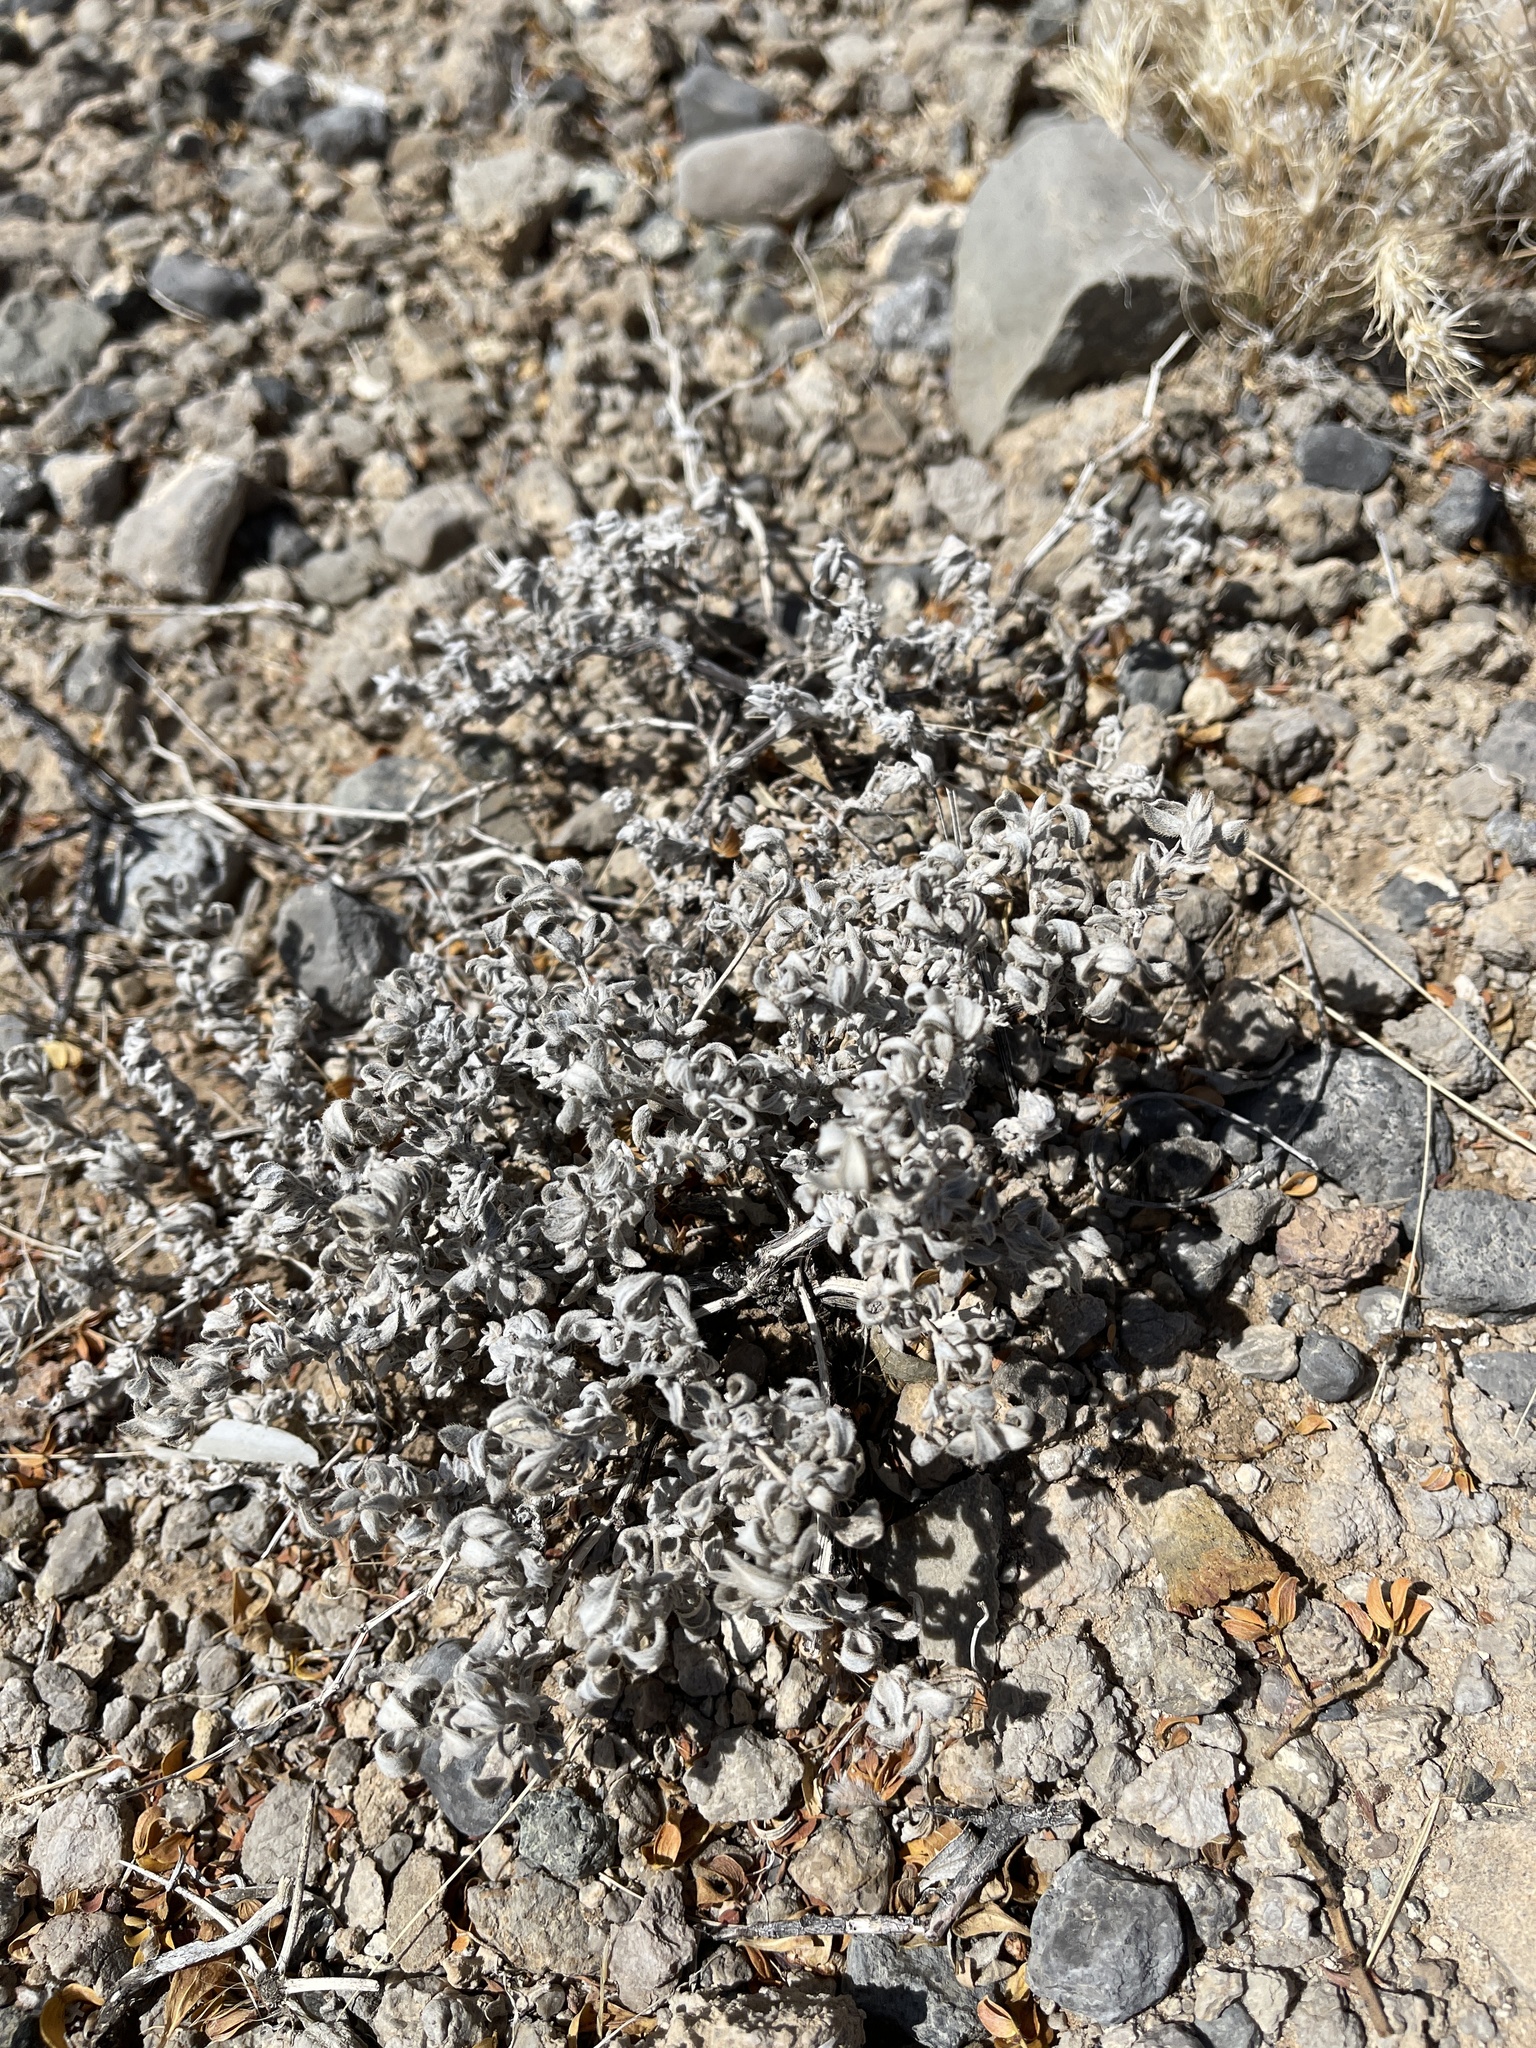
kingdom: Plantae
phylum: Tracheophyta
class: Magnoliopsida
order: Boraginales
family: Ehretiaceae
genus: Tiquilia
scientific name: Tiquilia canescens
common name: Hairy tiquilia
